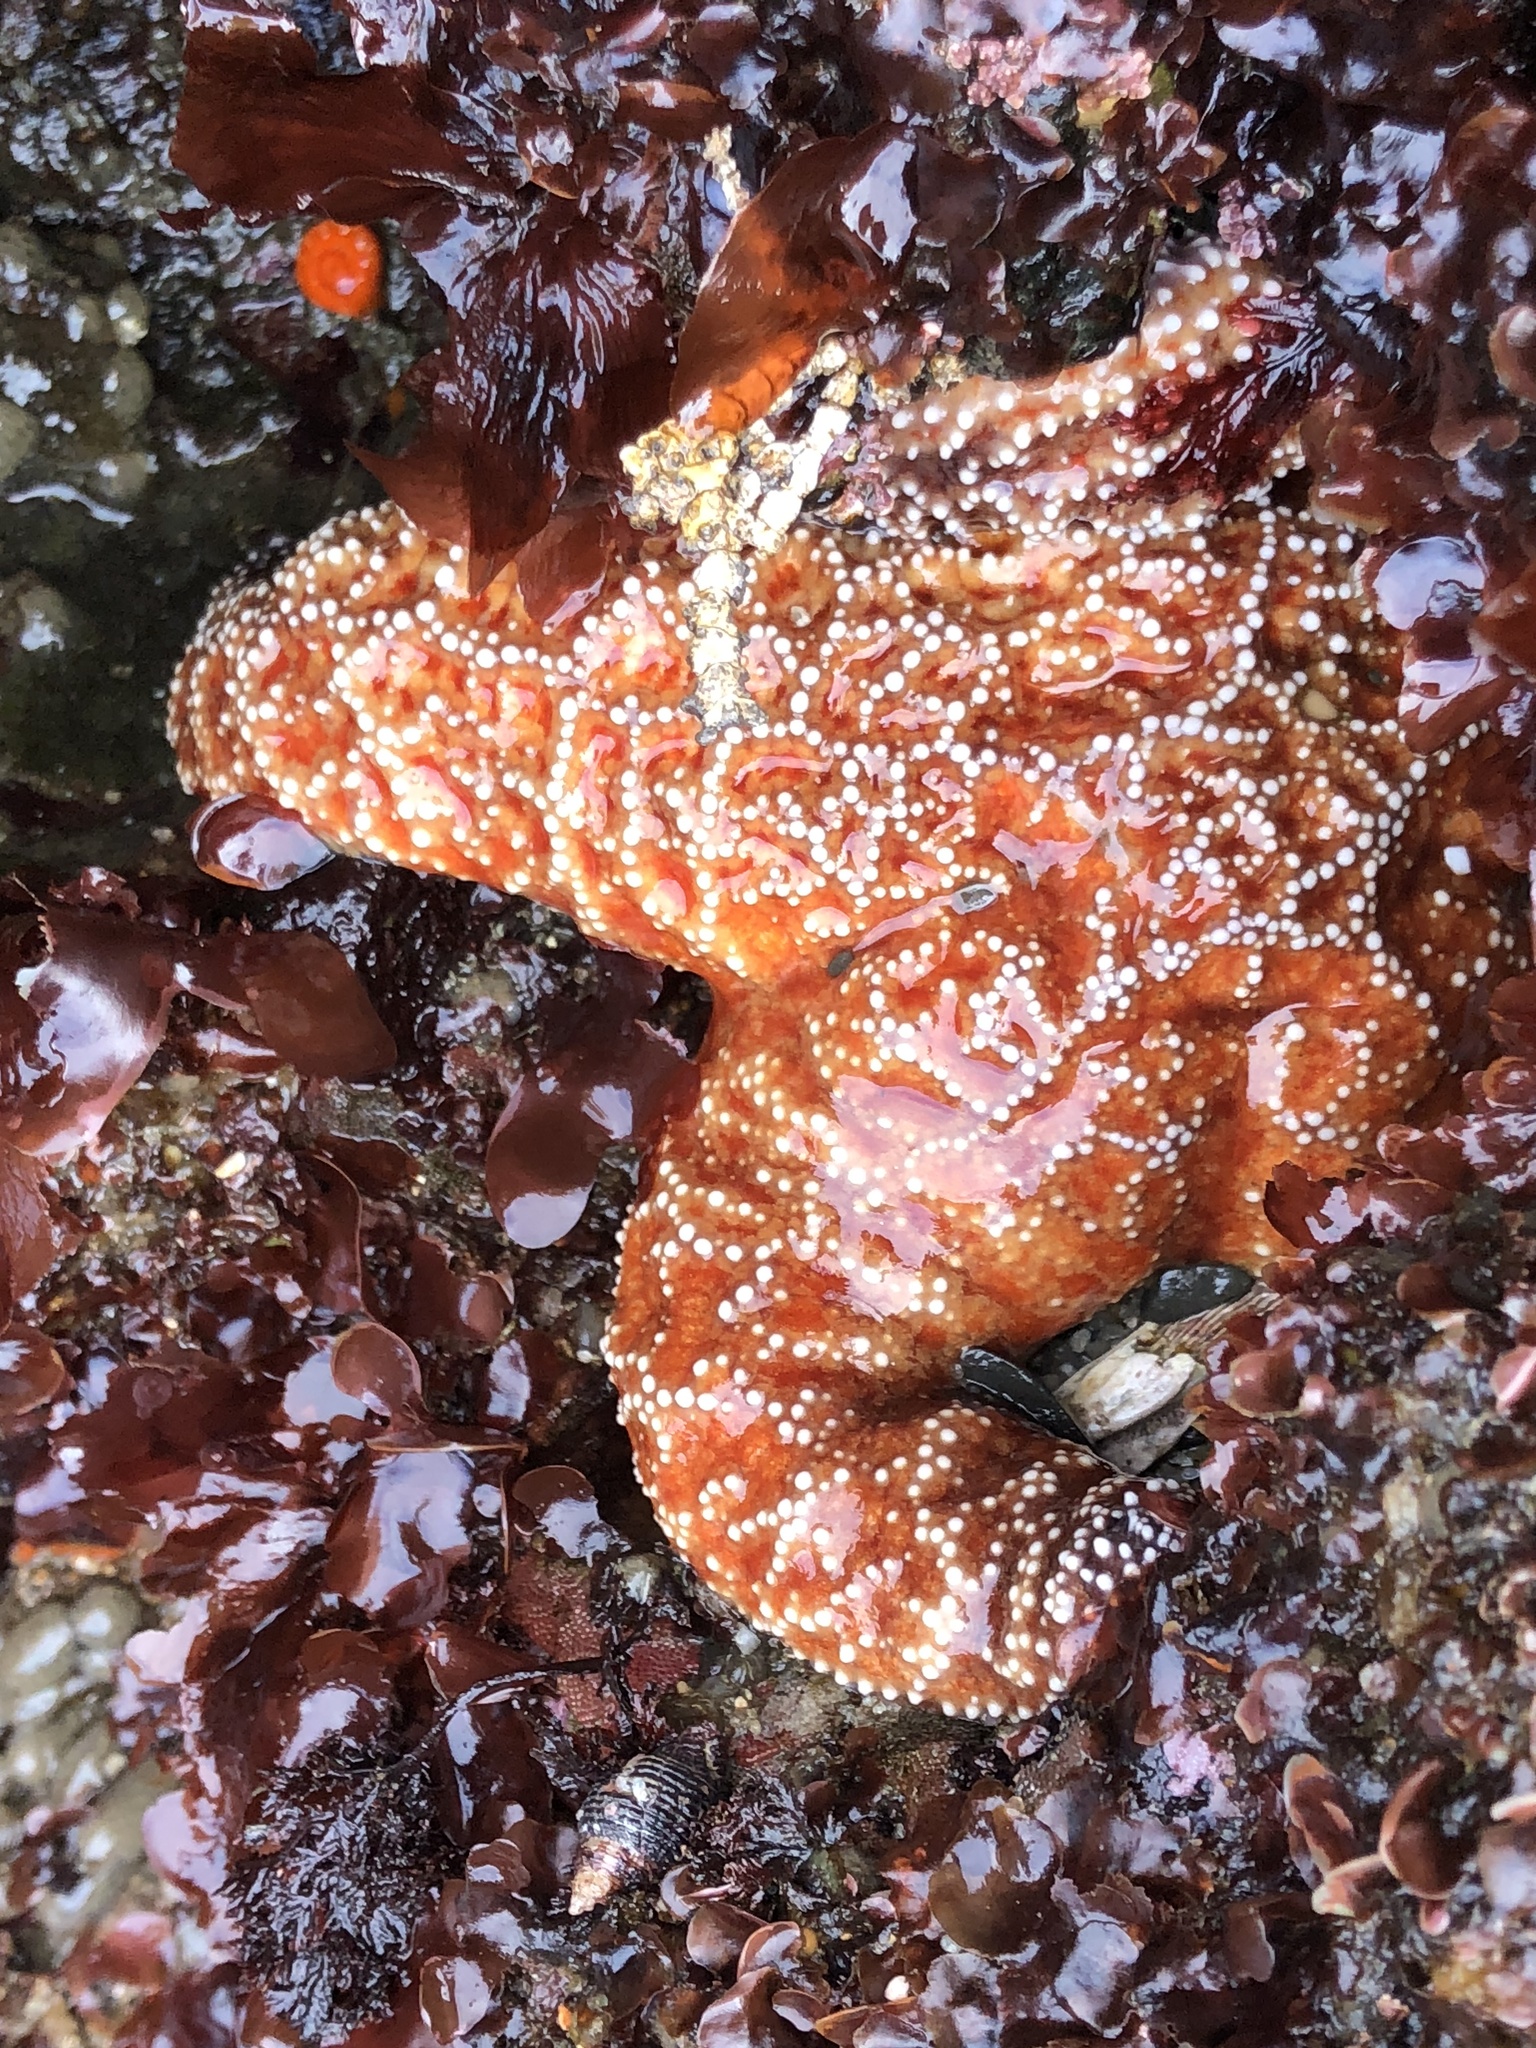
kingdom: Animalia
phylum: Echinodermata
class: Asteroidea
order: Forcipulatida
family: Asteriidae
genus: Pisaster
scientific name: Pisaster ochraceus
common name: Ochre stars
